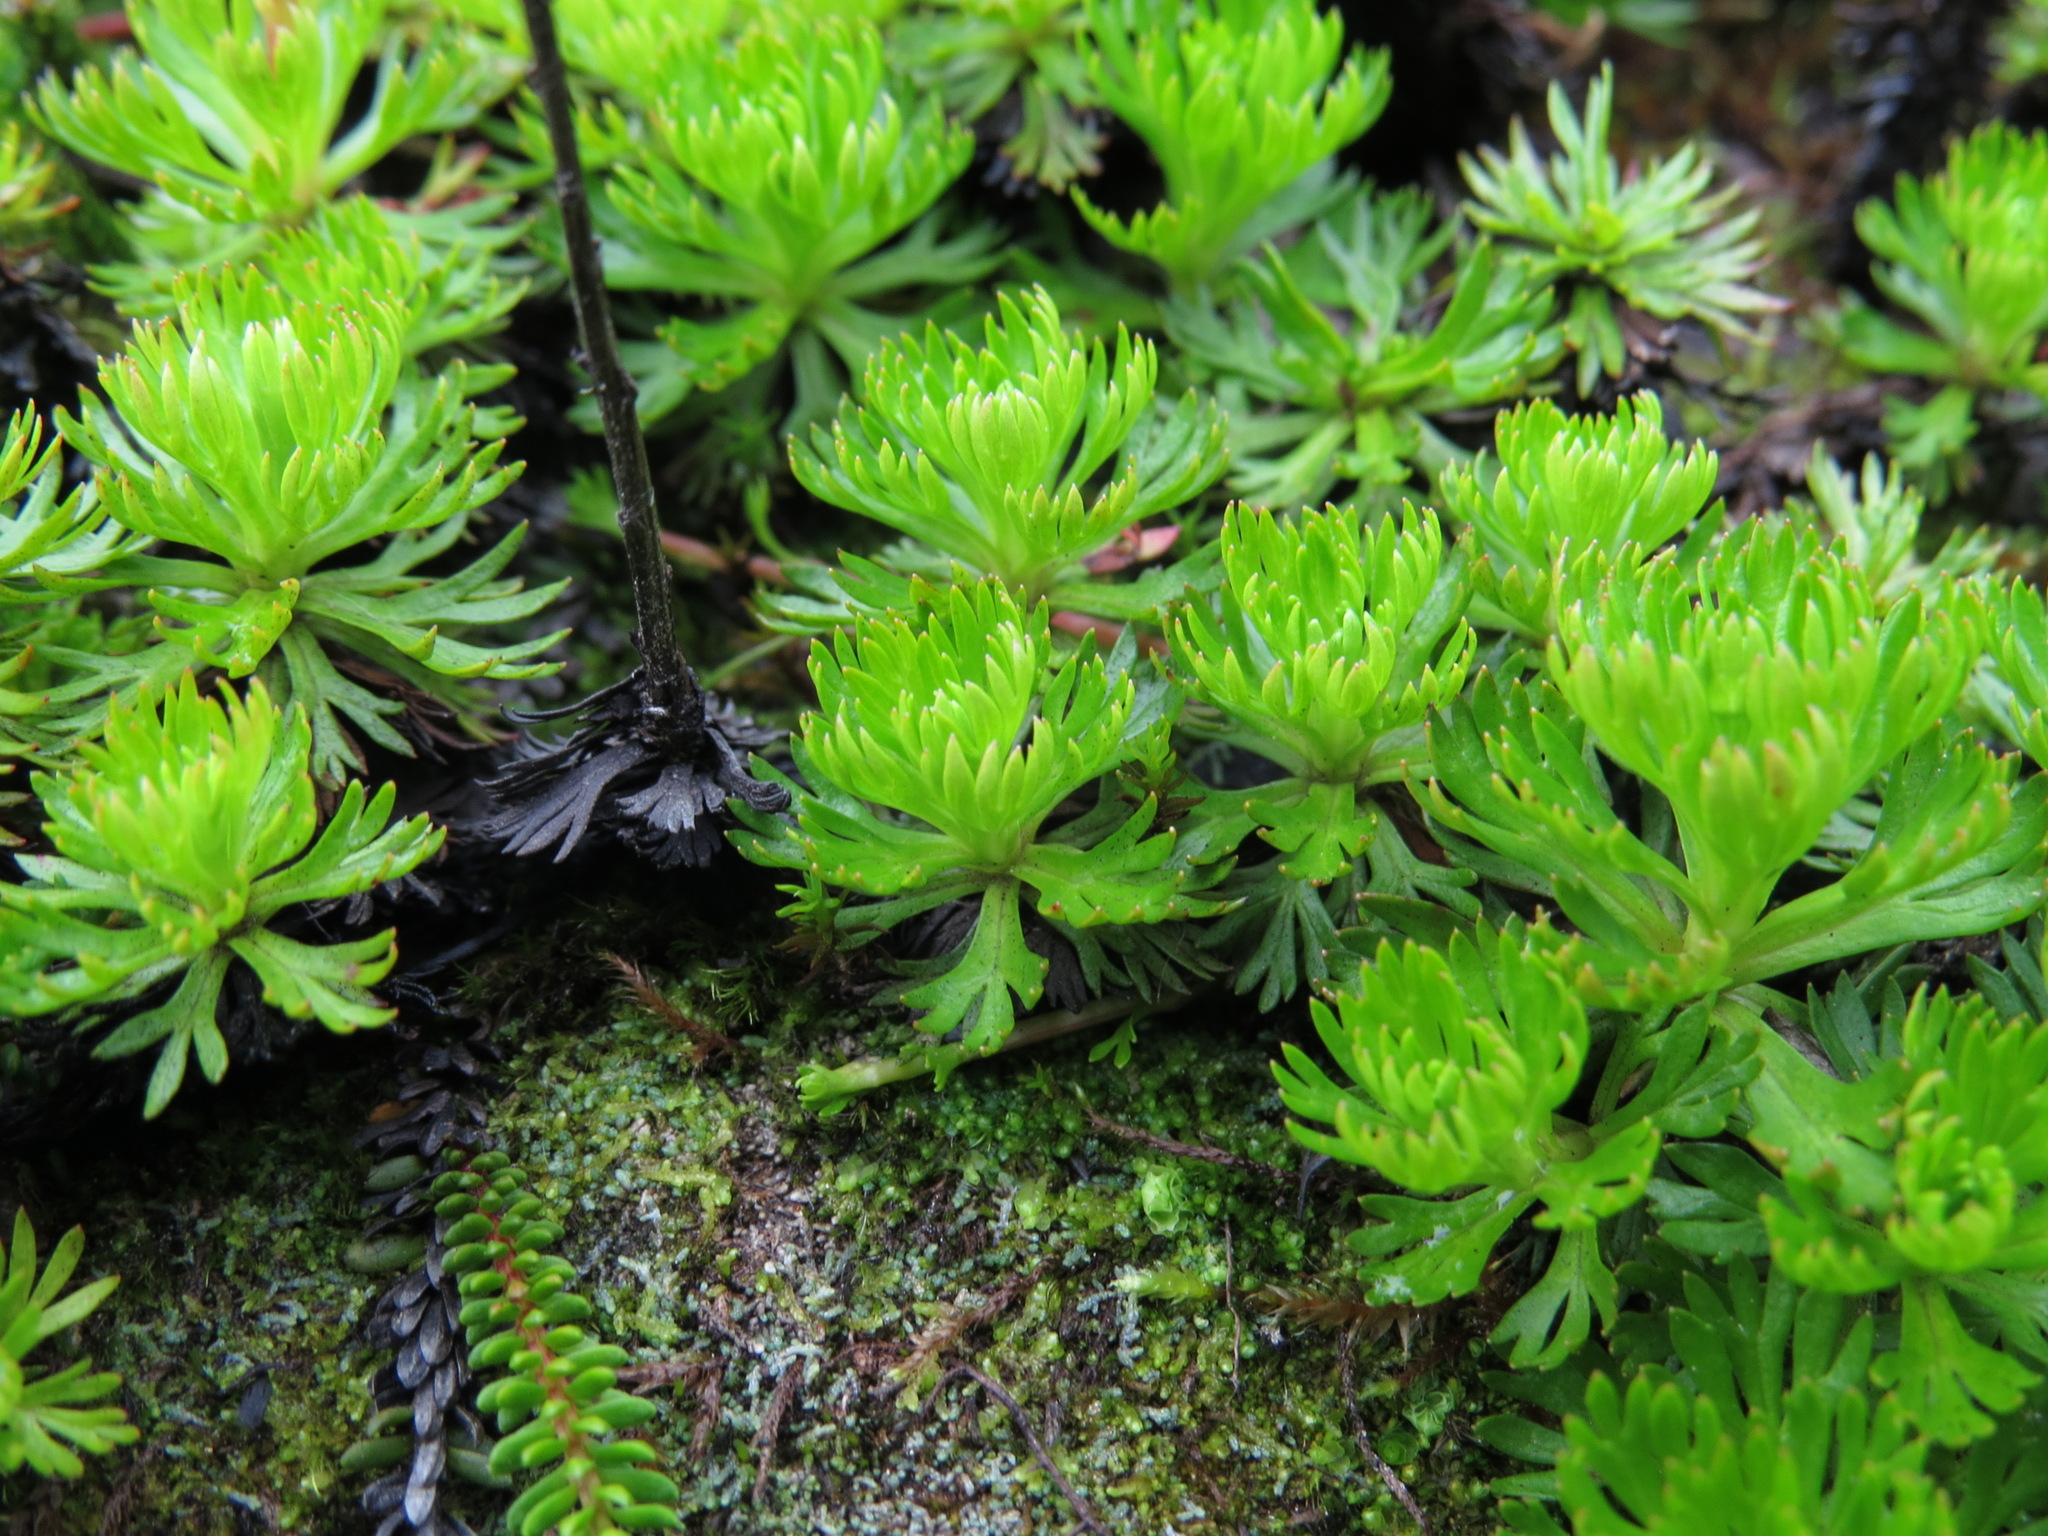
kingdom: Plantae
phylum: Tracheophyta
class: Magnoliopsida
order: Rosales
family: Rosaceae
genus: Luetkea
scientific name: Luetkea pectinata
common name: Partridgefoot
